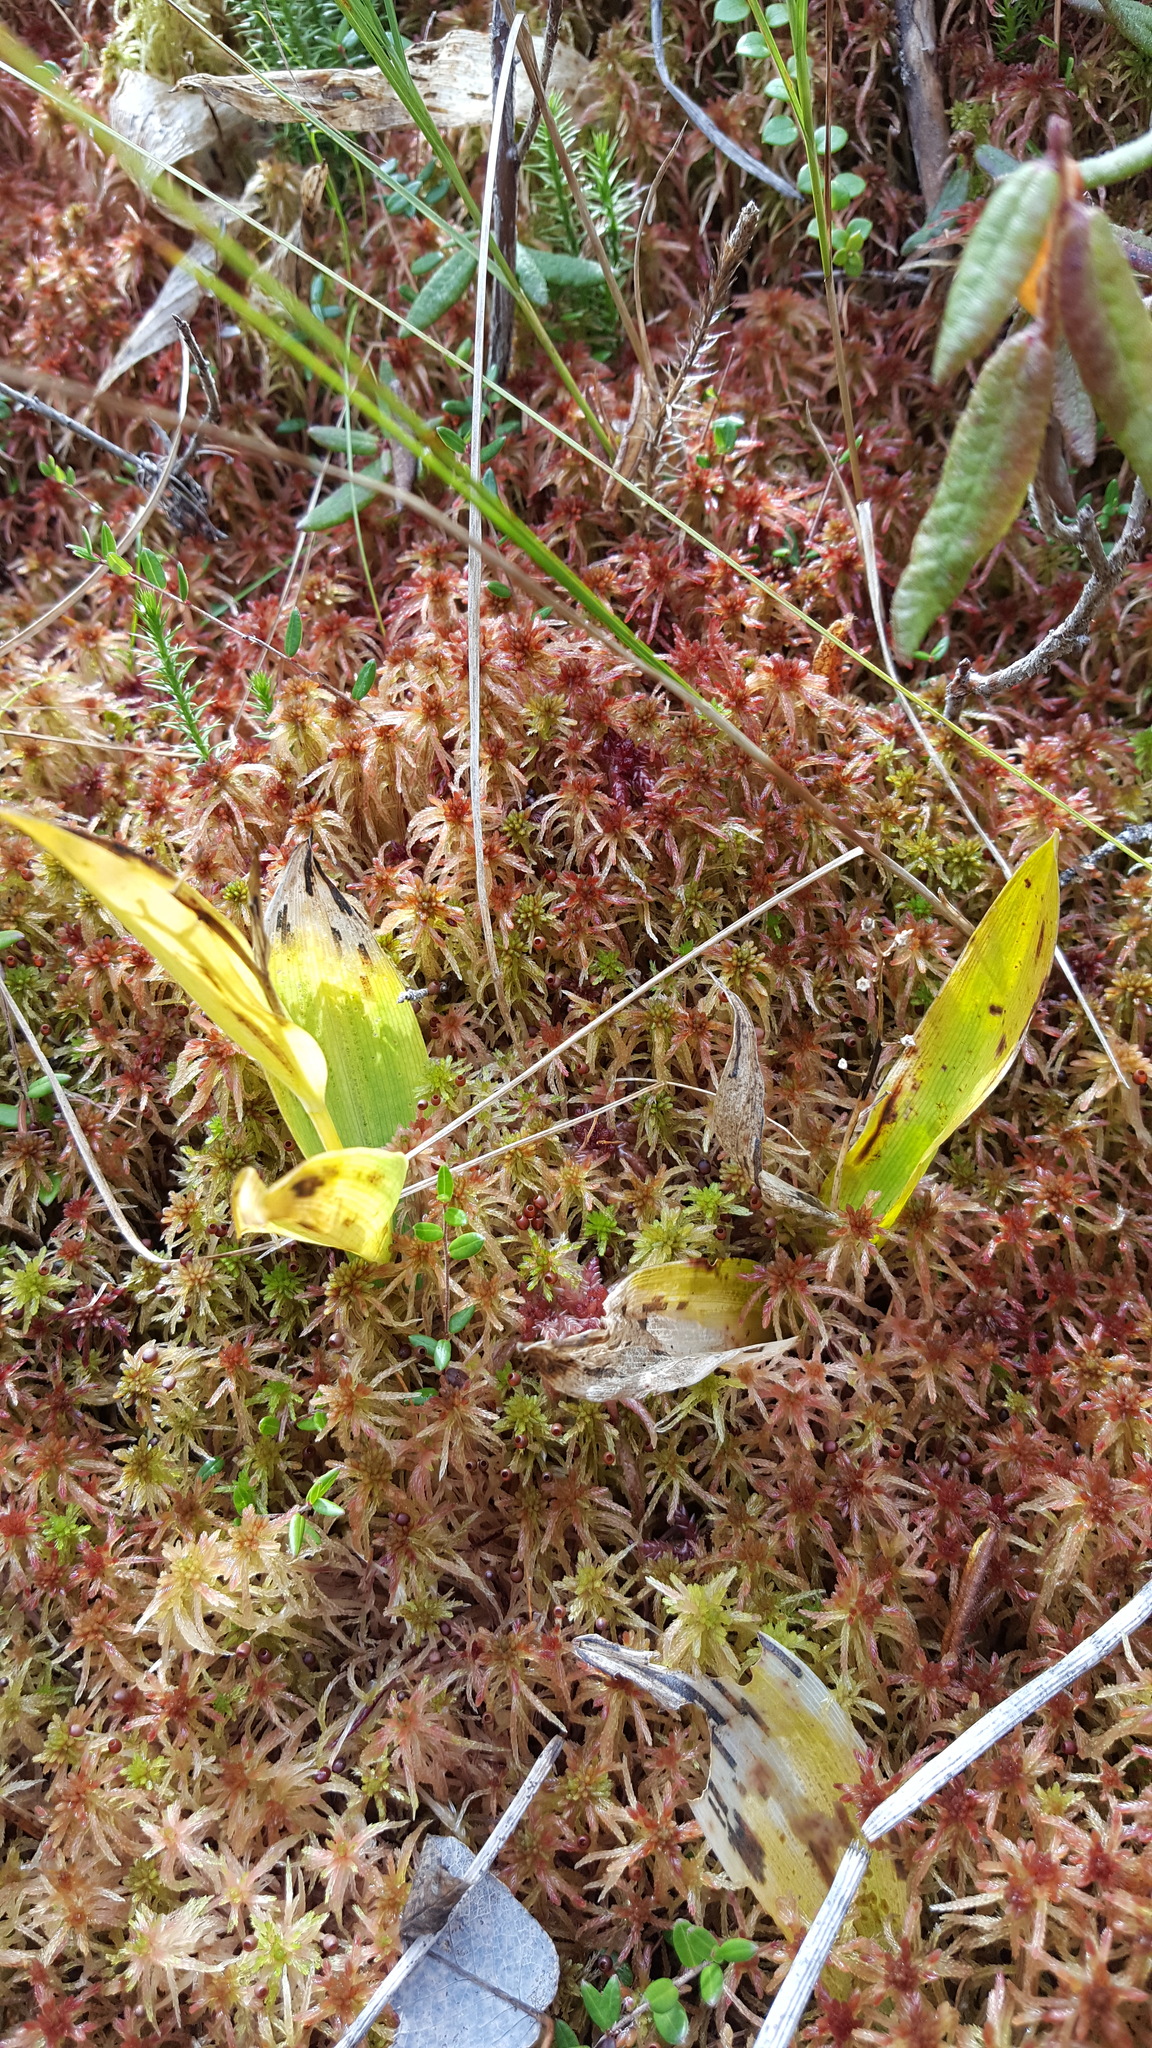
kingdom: Plantae
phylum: Tracheophyta
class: Liliopsida
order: Asparagales
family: Asparagaceae
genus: Maianthemum
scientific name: Maianthemum trifolium
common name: Swamp false solomon's seal
